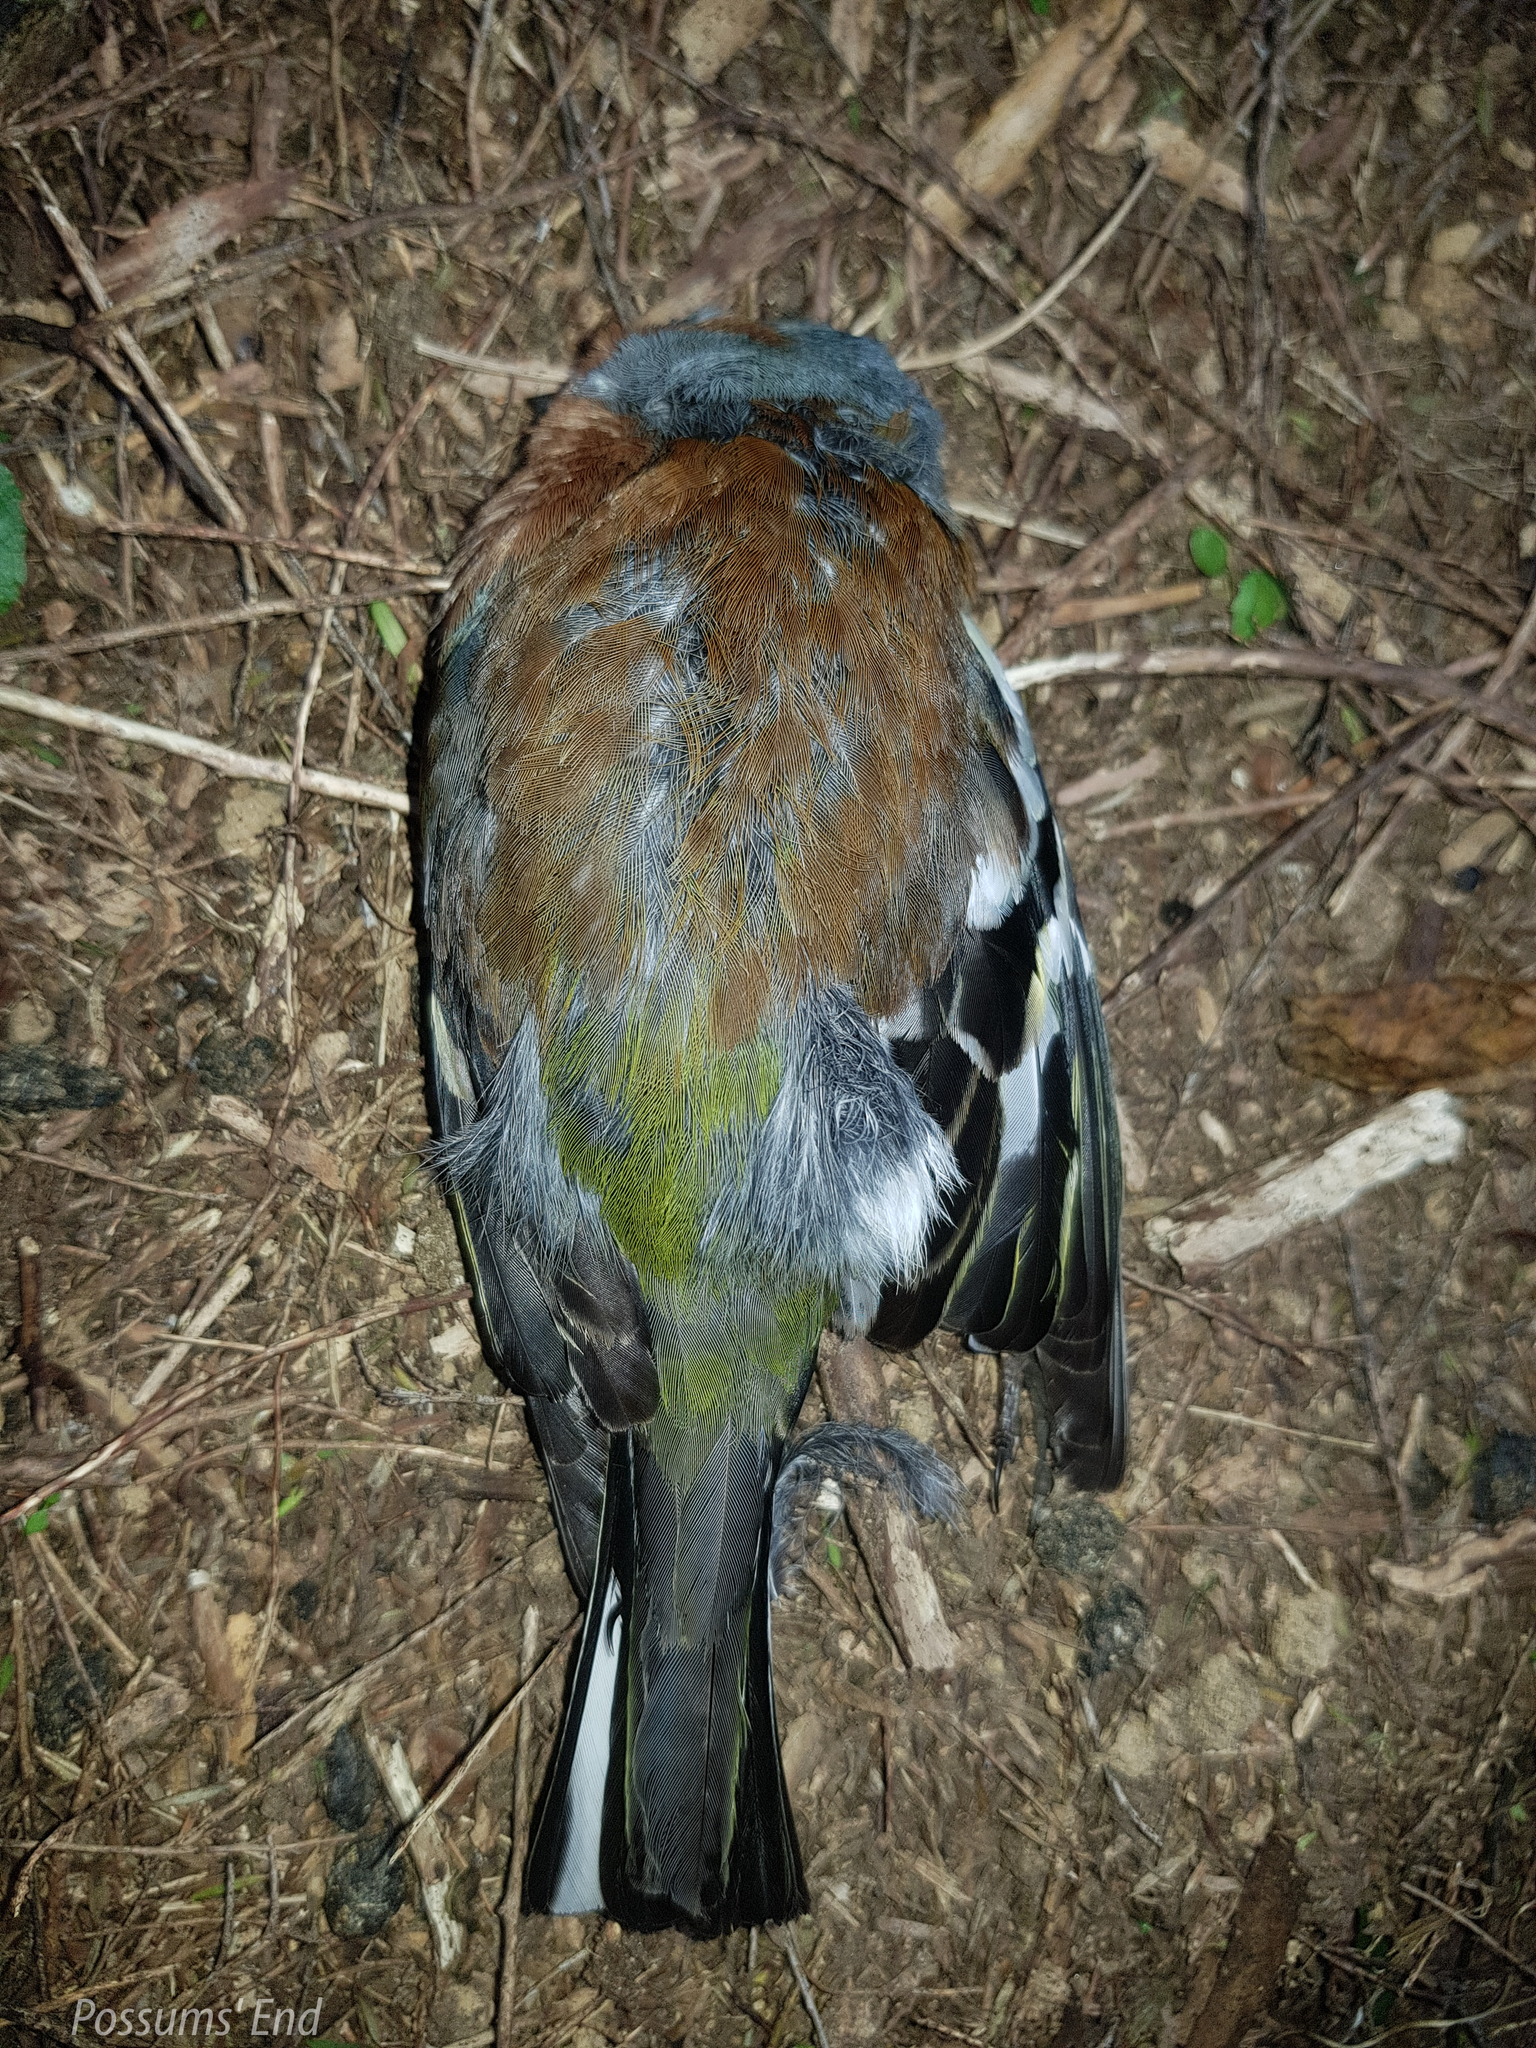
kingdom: Animalia
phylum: Chordata
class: Aves
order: Passeriformes
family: Fringillidae
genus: Fringilla
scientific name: Fringilla coelebs
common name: Common chaffinch
